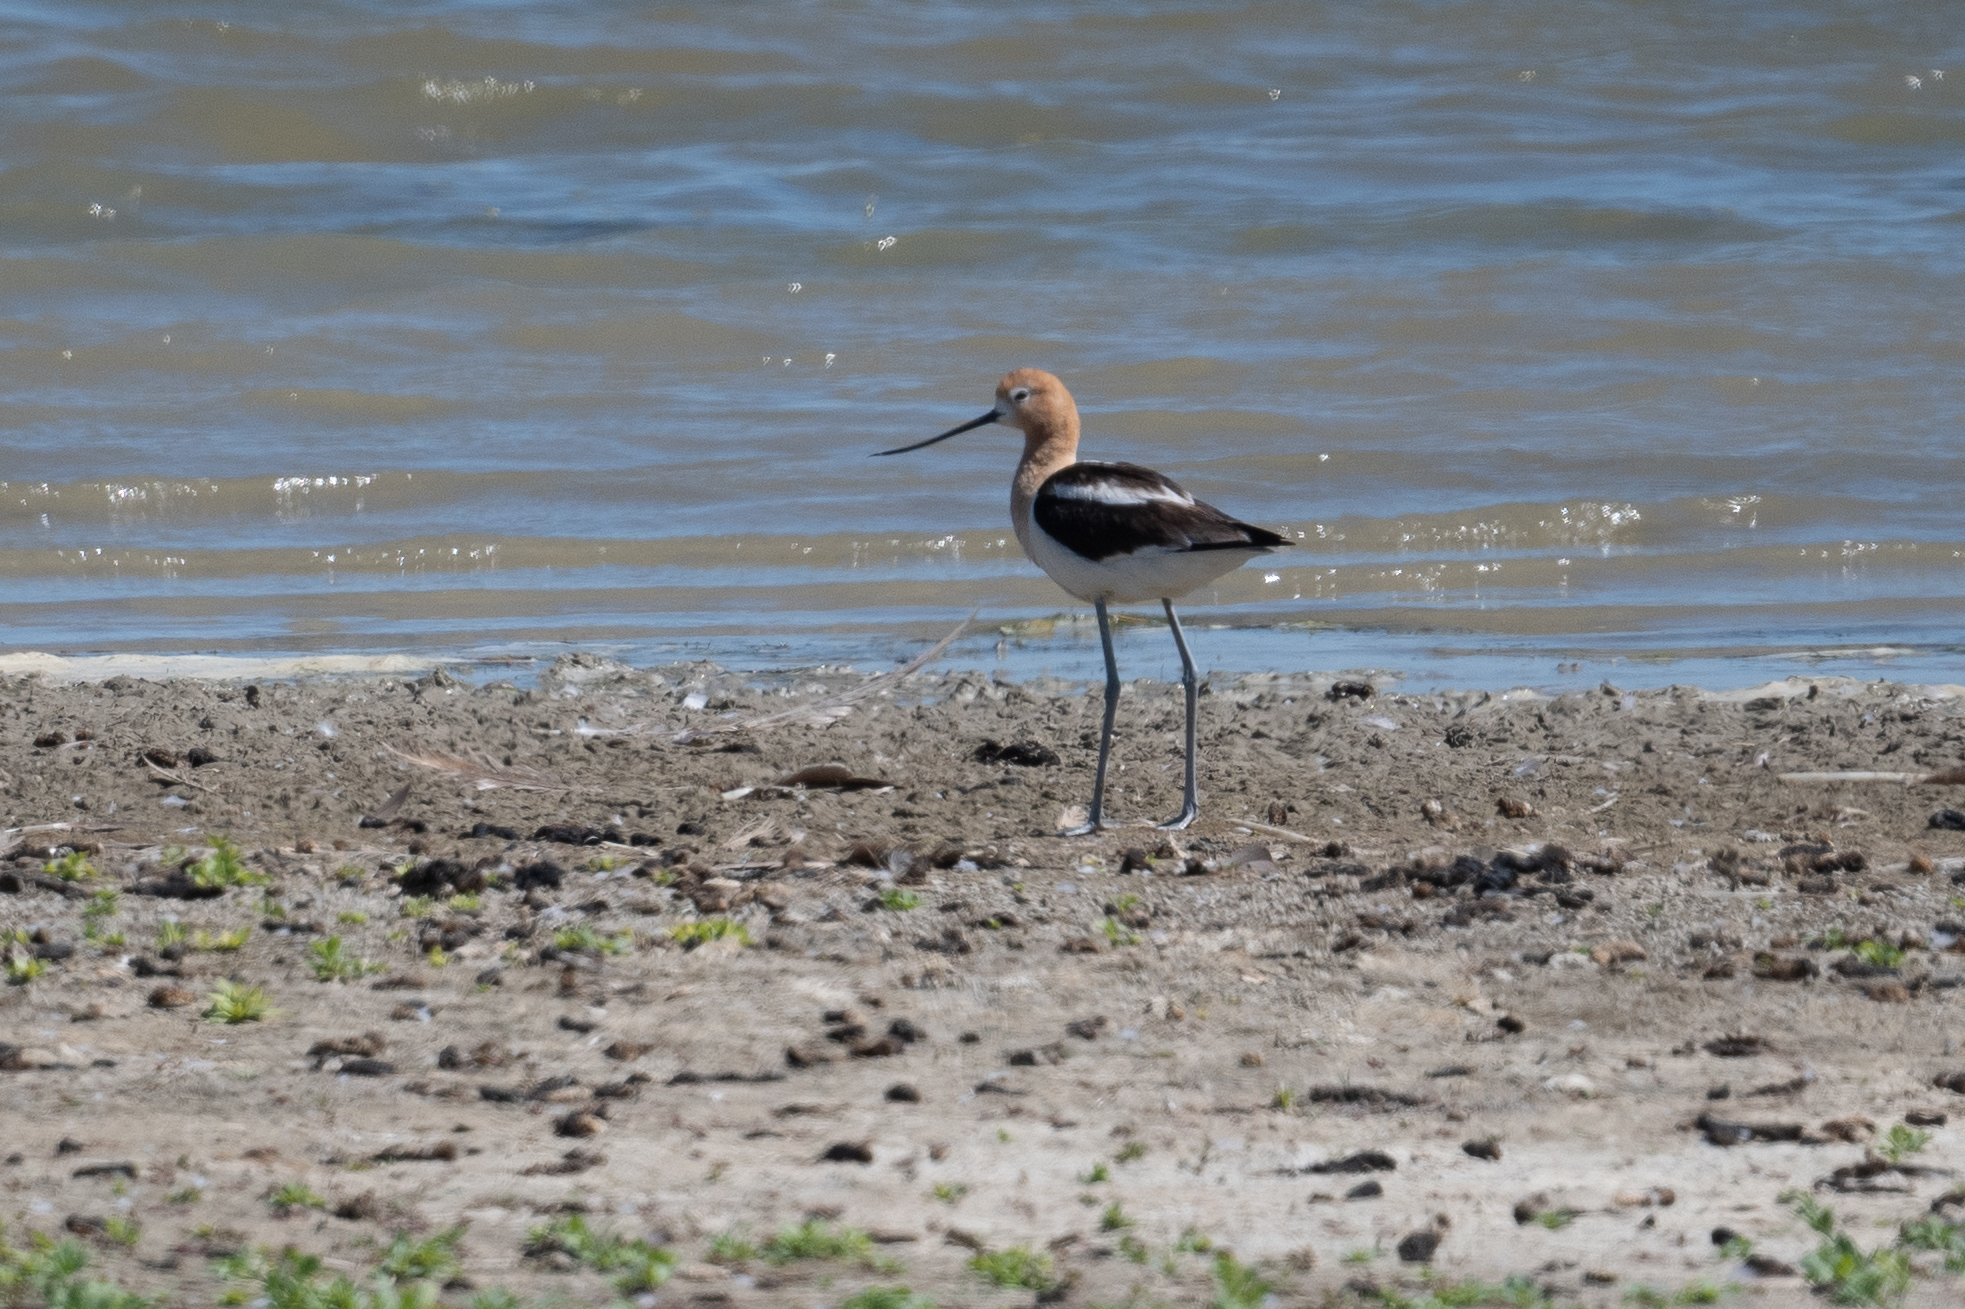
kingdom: Animalia
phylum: Chordata
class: Aves
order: Charadriiformes
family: Recurvirostridae
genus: Recurvirostra
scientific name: Recurvirostra americana
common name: American avocet
